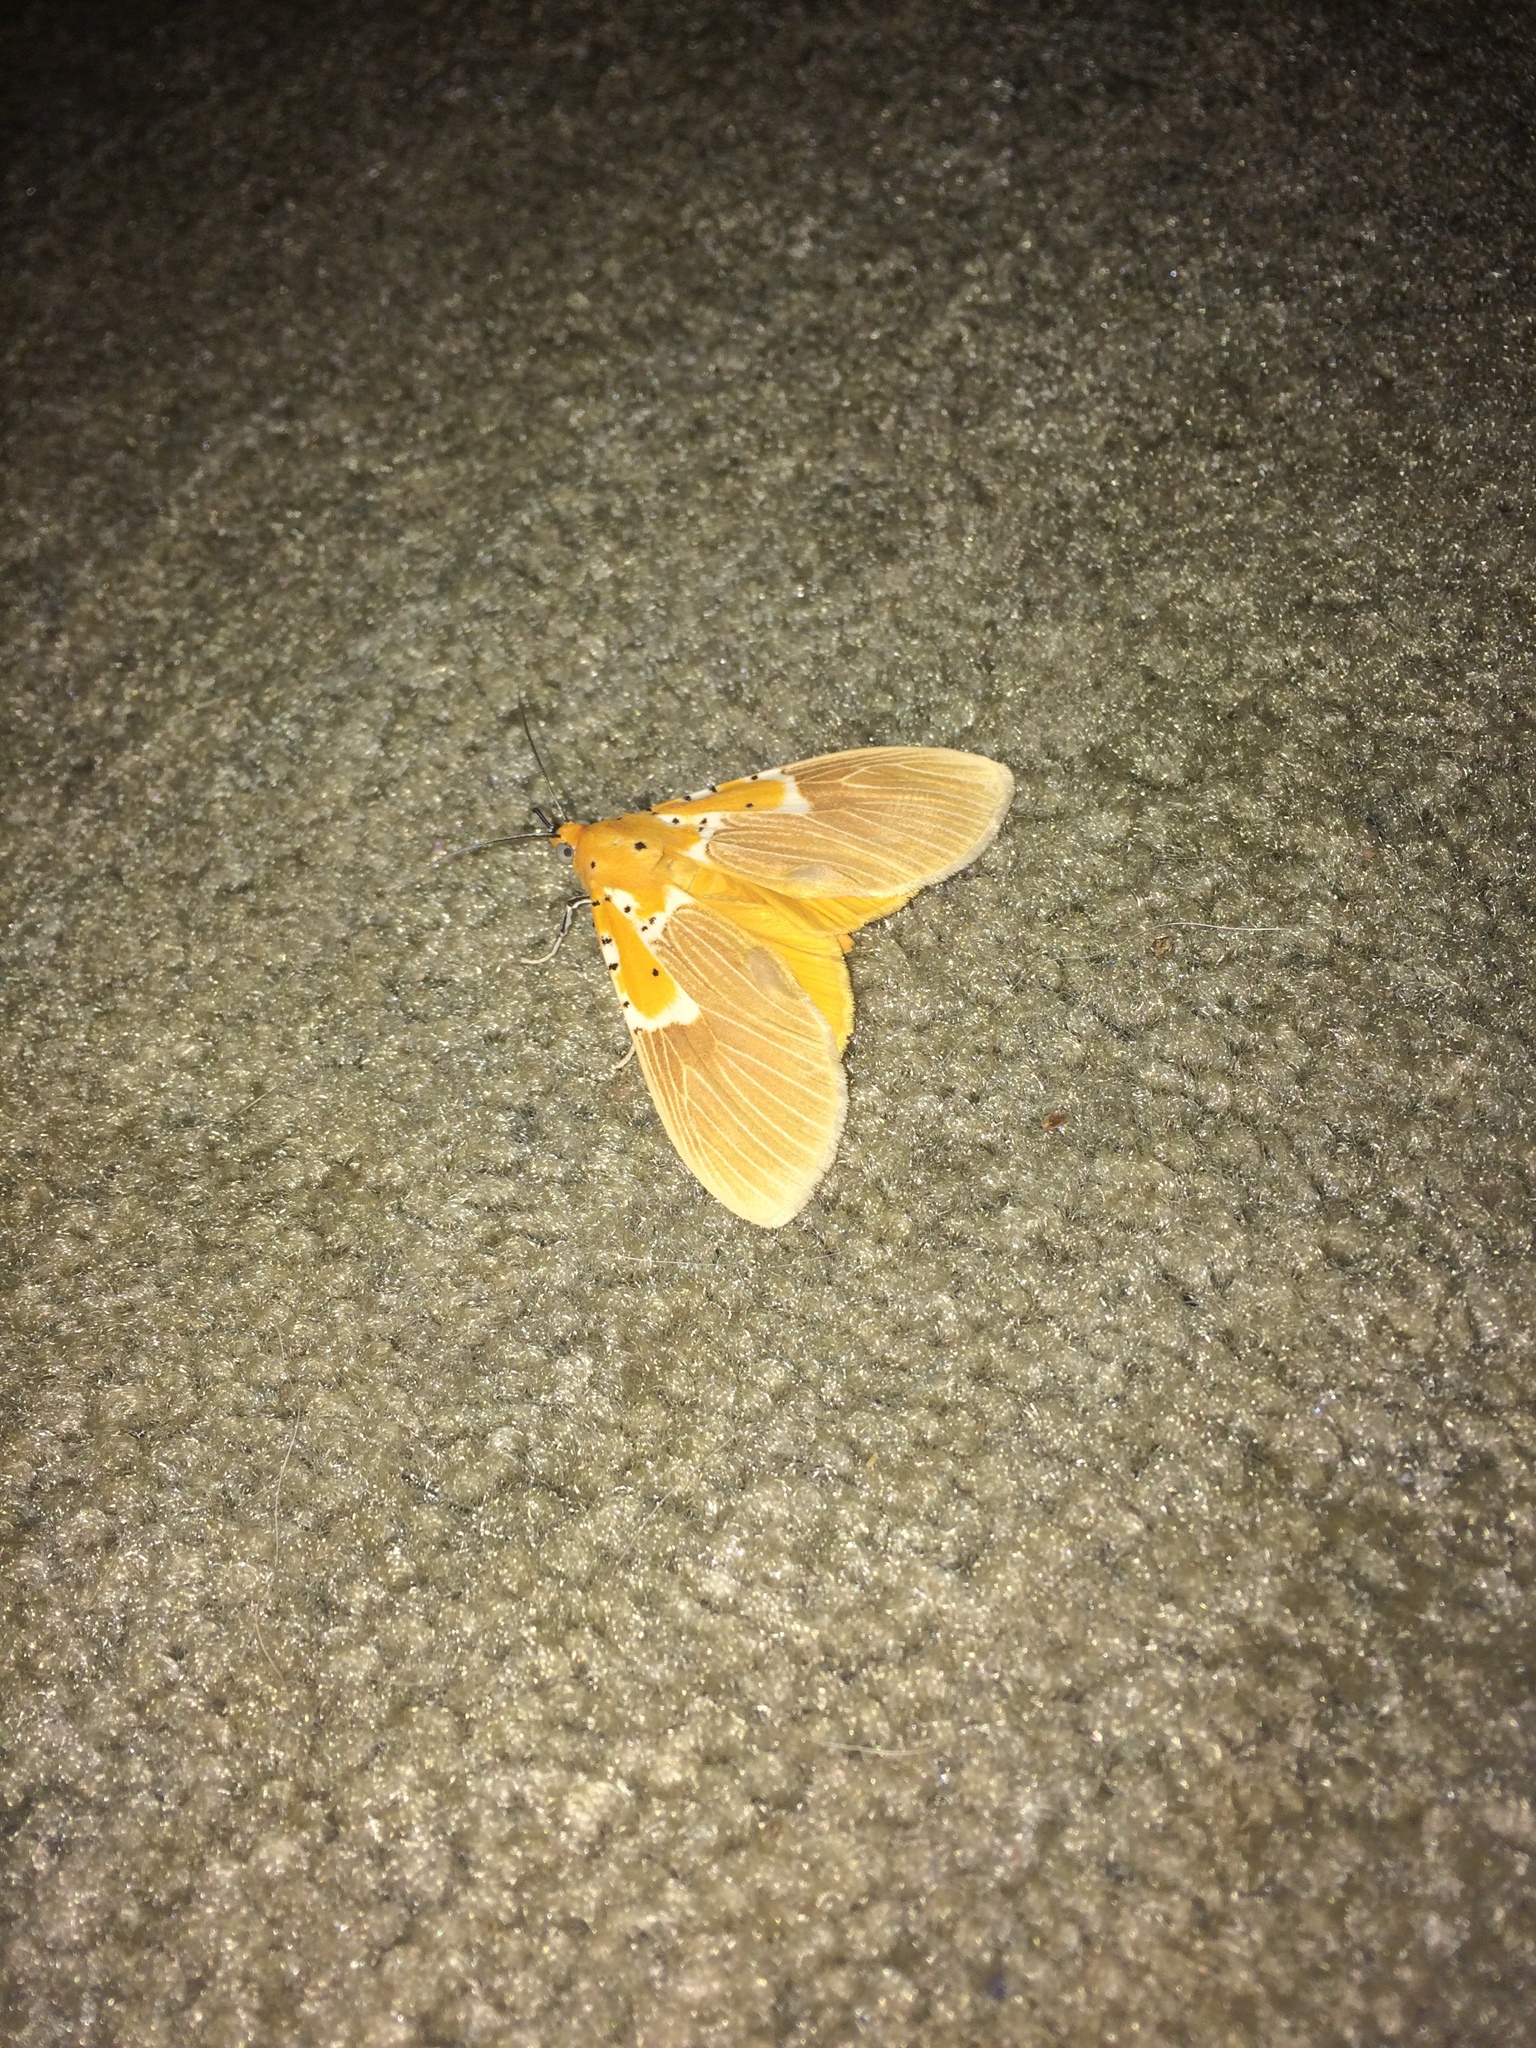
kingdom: Animalia
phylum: Arthropoda
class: Insecta
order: Lepidoptera
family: Erebidae
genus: Asota
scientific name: Asota speciosa
